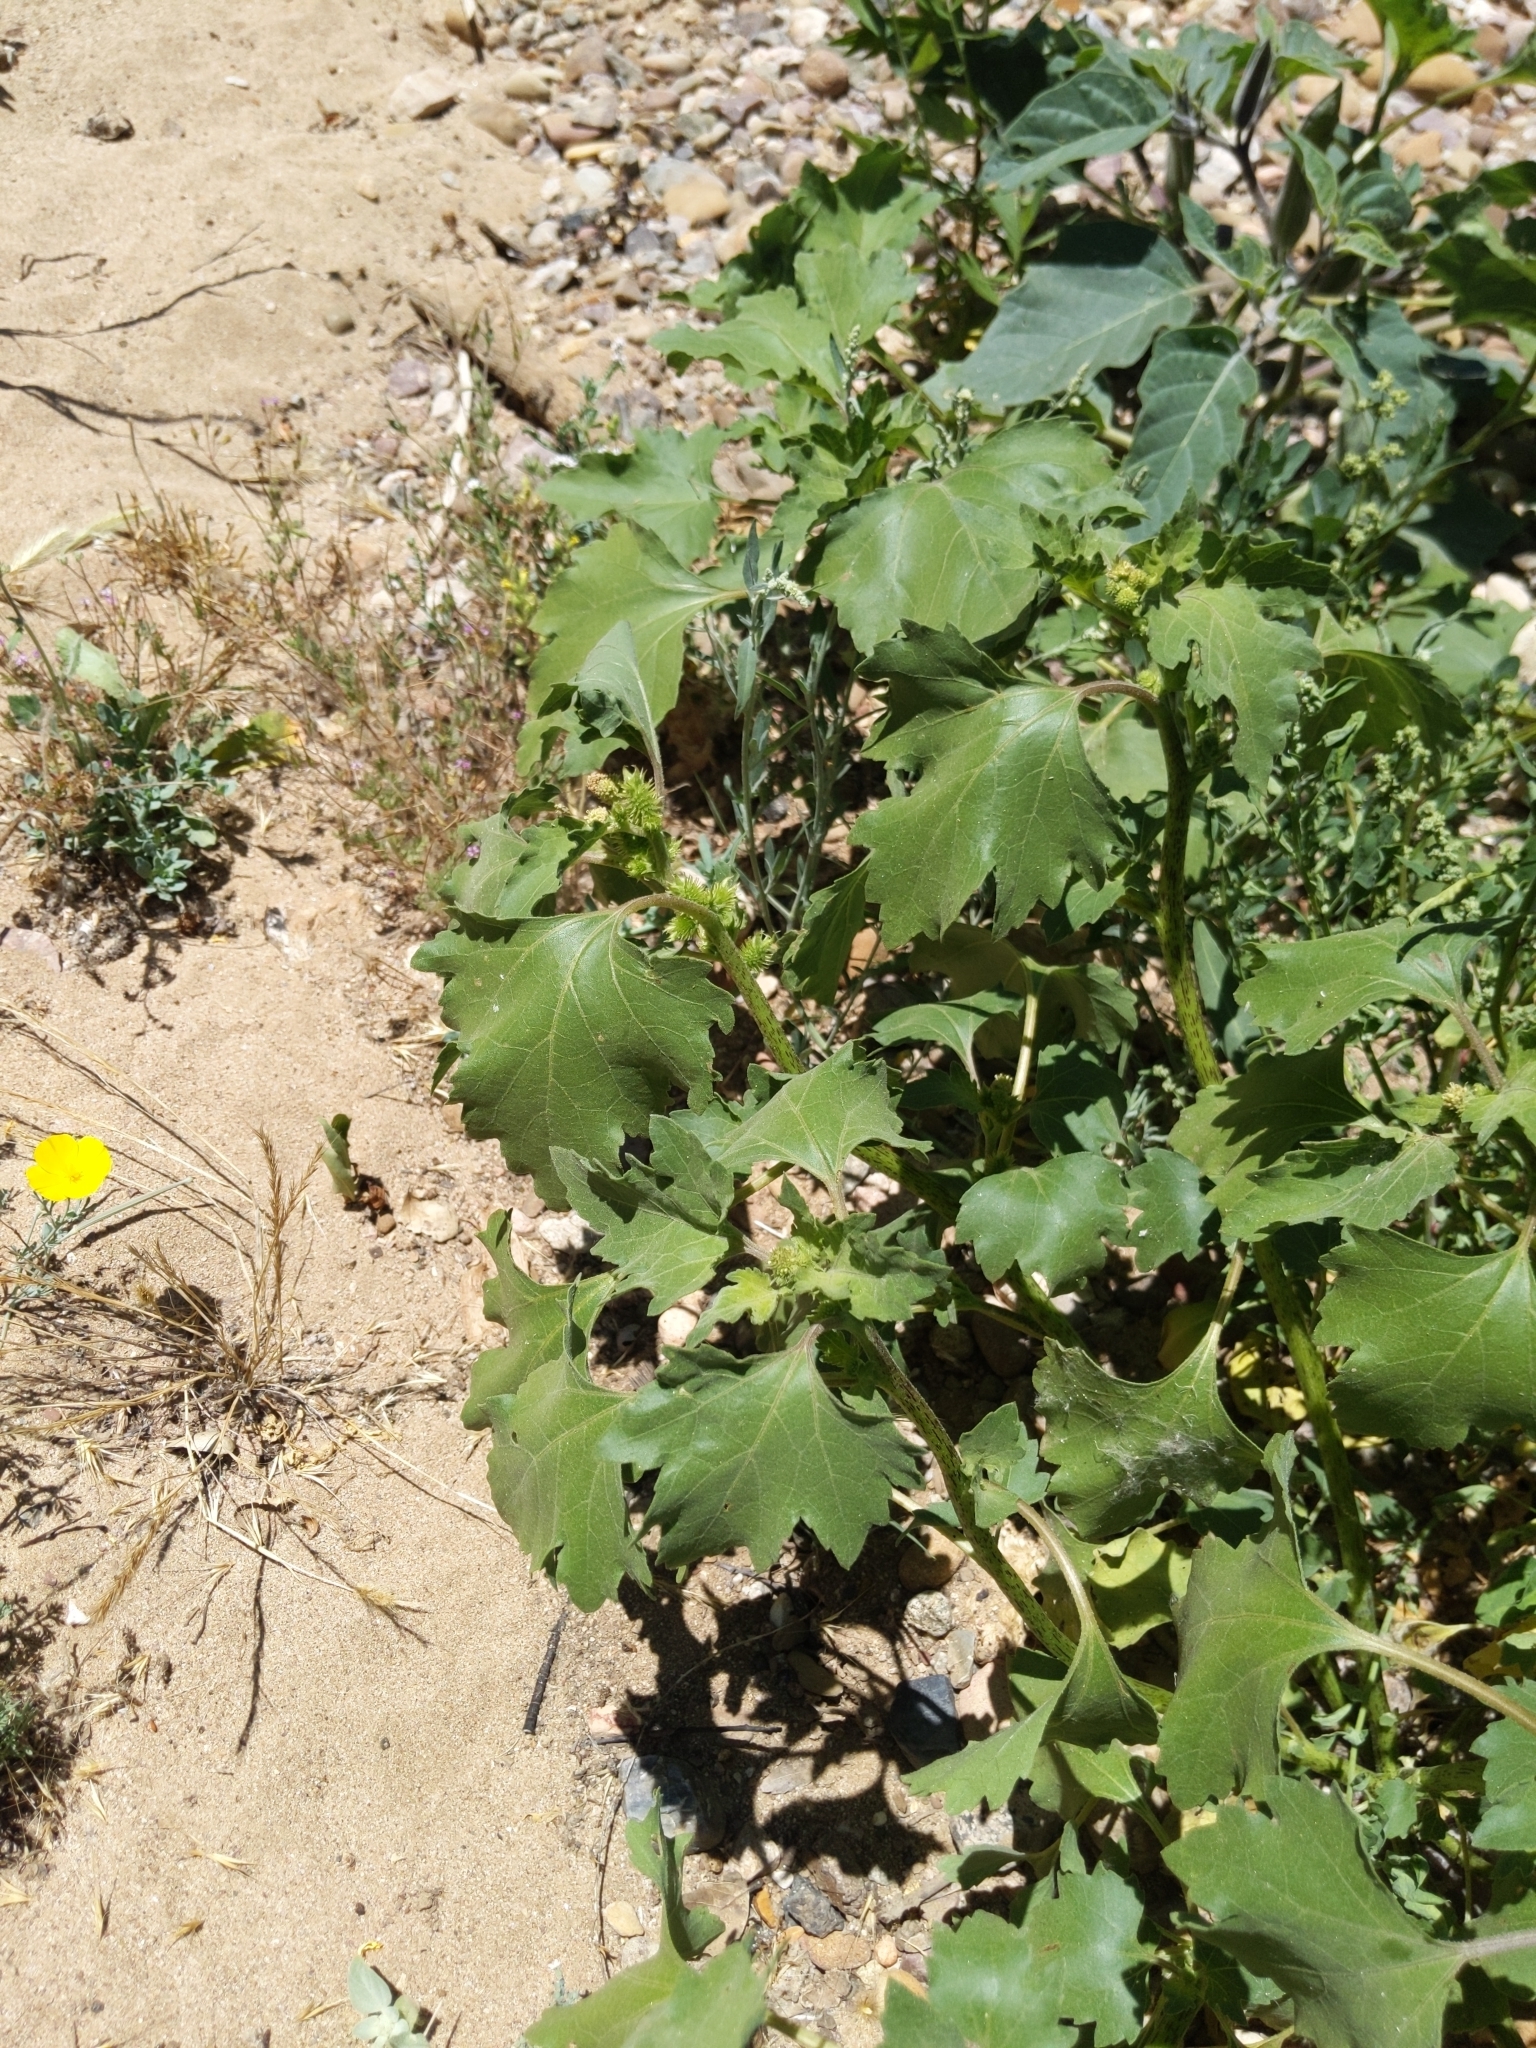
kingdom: Plantae
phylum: Tracheophyta
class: Magnoliopsida
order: Asterales
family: Asteraceae
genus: Xanthium
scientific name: Xanthium strumarium
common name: Rough cocklebur
